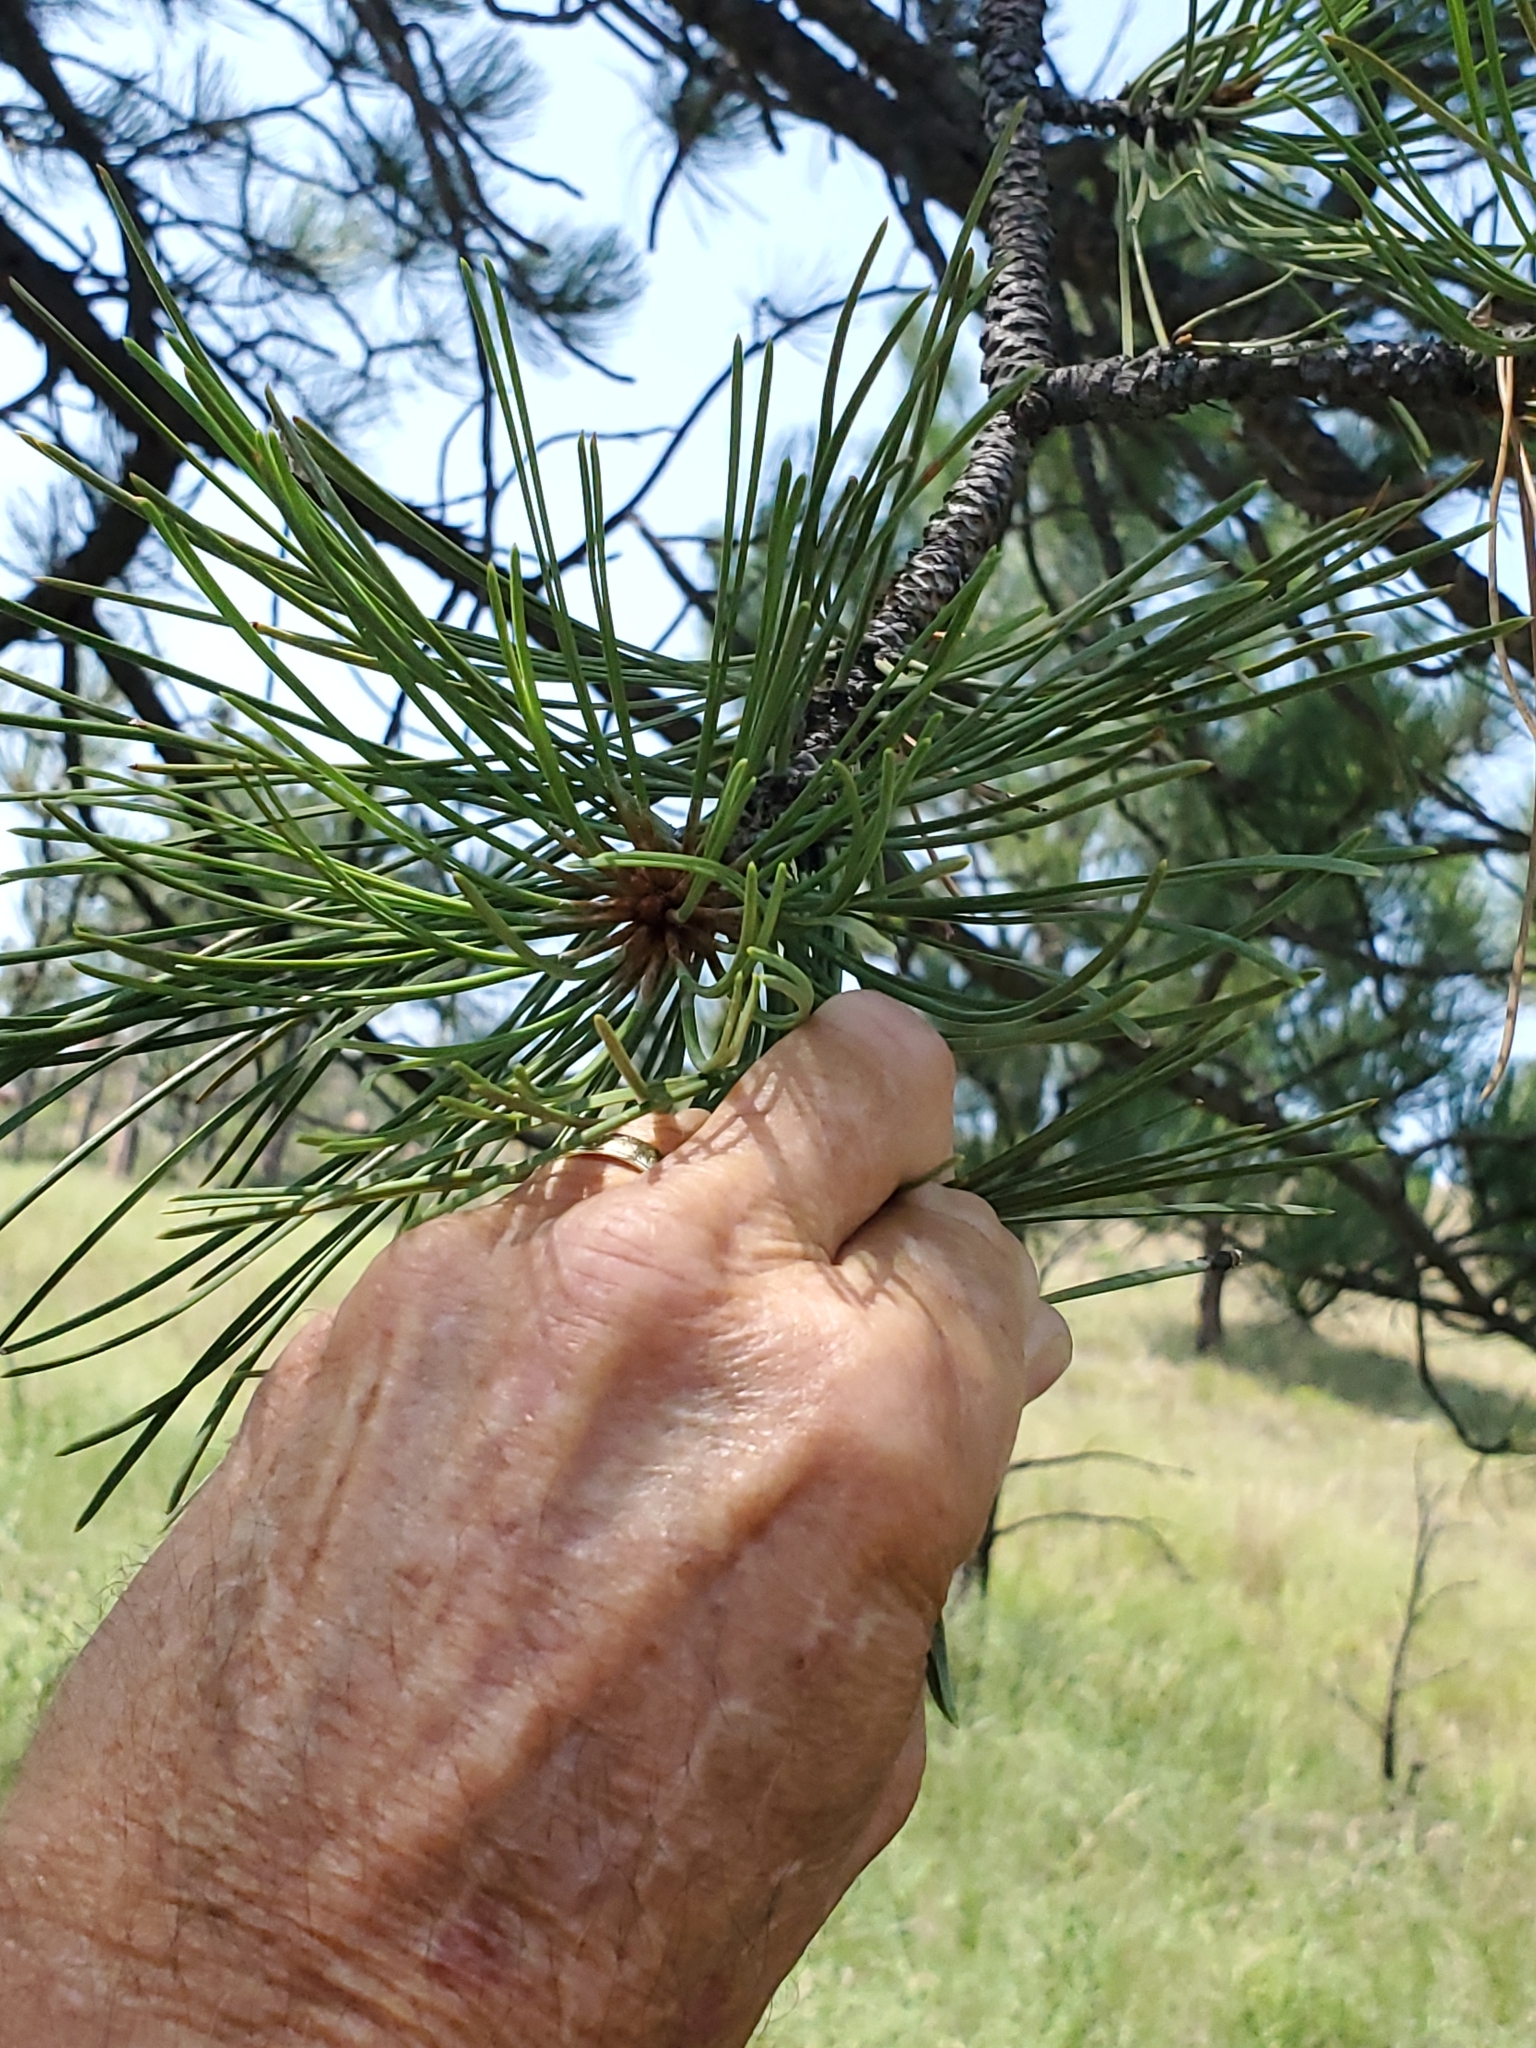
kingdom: Plantae
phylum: Tracheophyta
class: Pinopsida
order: Pinales
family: Pinaceae
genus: Pinus
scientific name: Pinus ponderosa
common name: Western yellow-pine
